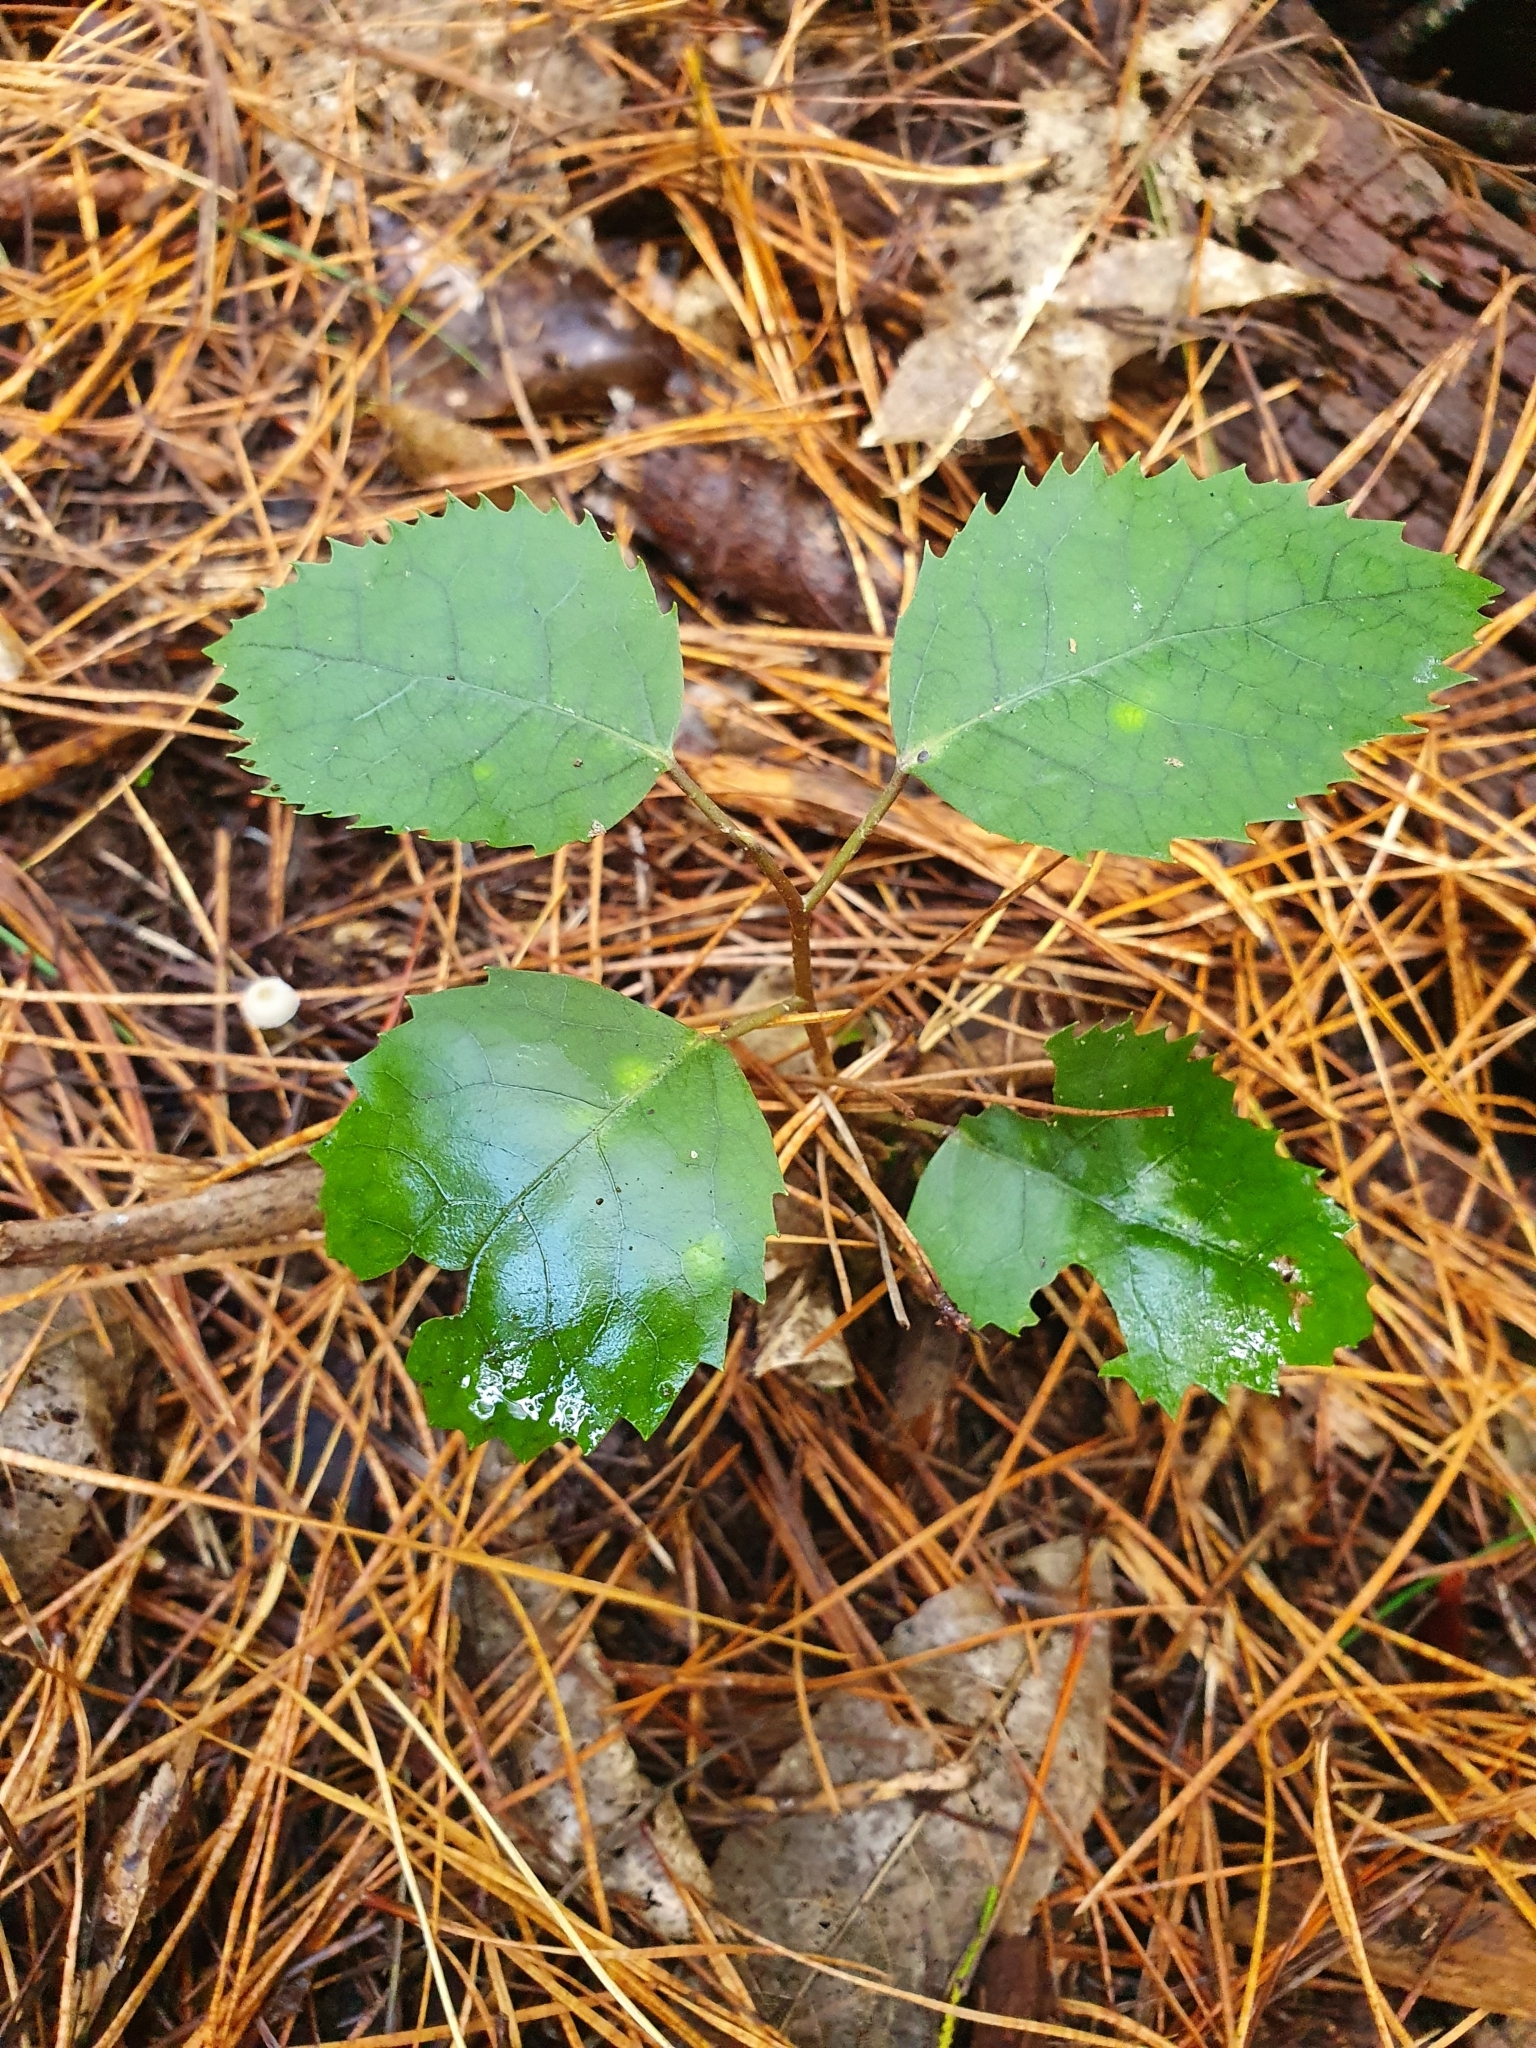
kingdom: Plantae
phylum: Tracheophyta
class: Magnoliopsida
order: Malvales
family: Malvaceae
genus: Hoheria
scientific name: Hoheria populnea
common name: Lacebark
